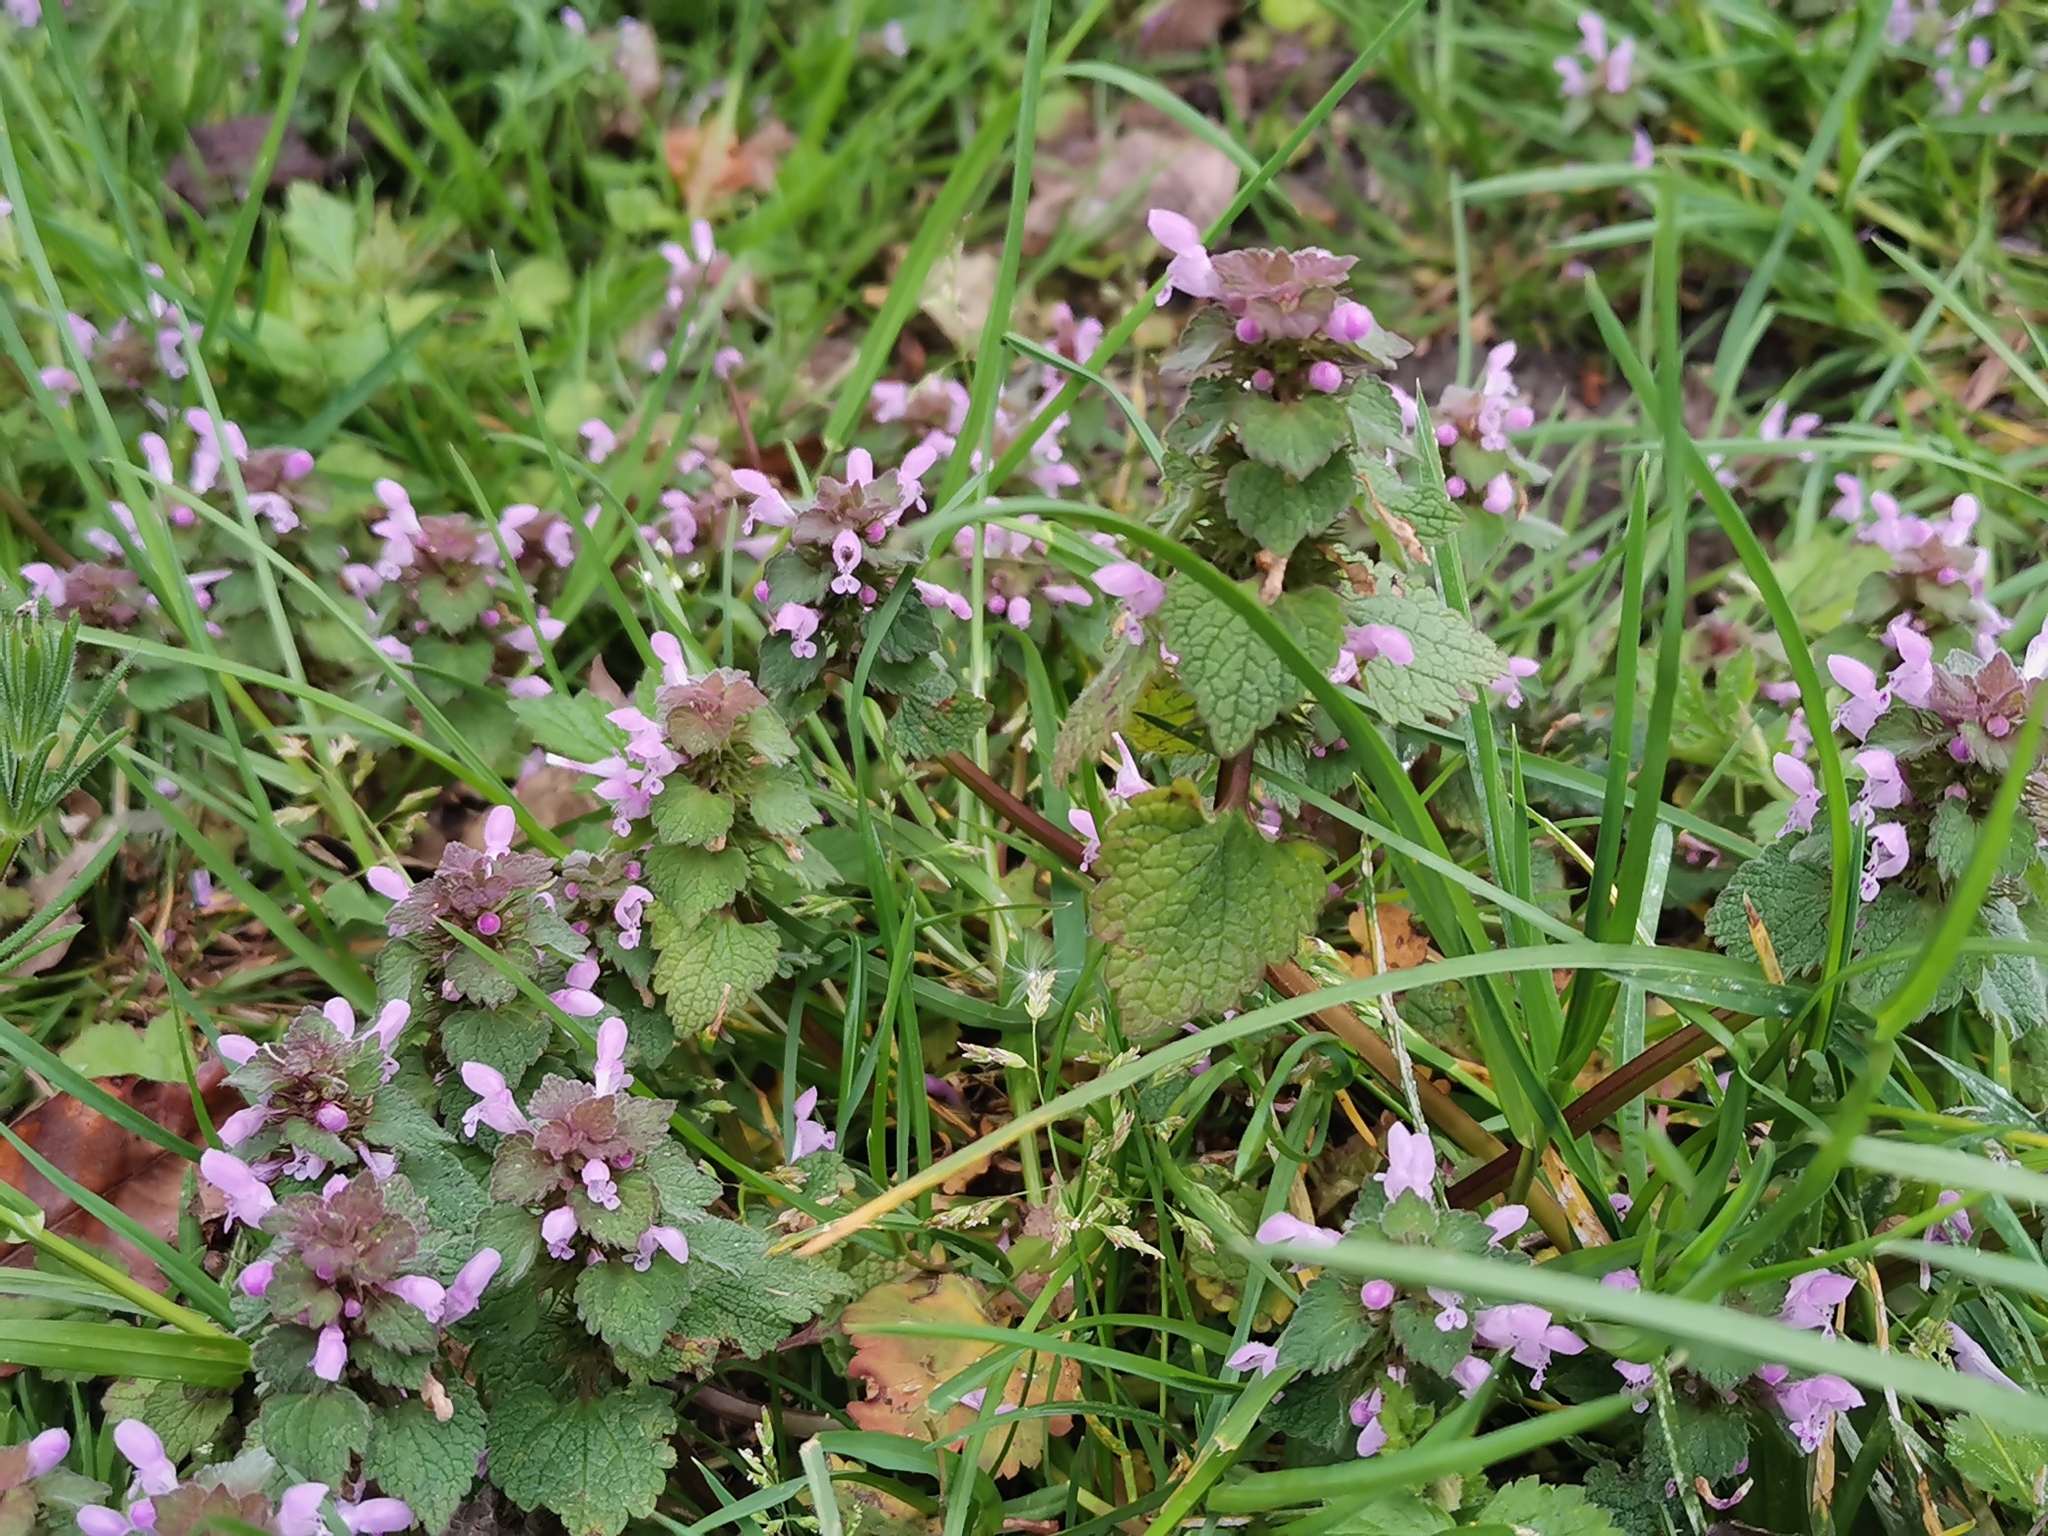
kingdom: Plantae
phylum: Tracheophyta
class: Magnoliopsida
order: Lamiales
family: Lamiaceae
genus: Lamium
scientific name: Lamium purpureum
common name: Red dead-nettle
